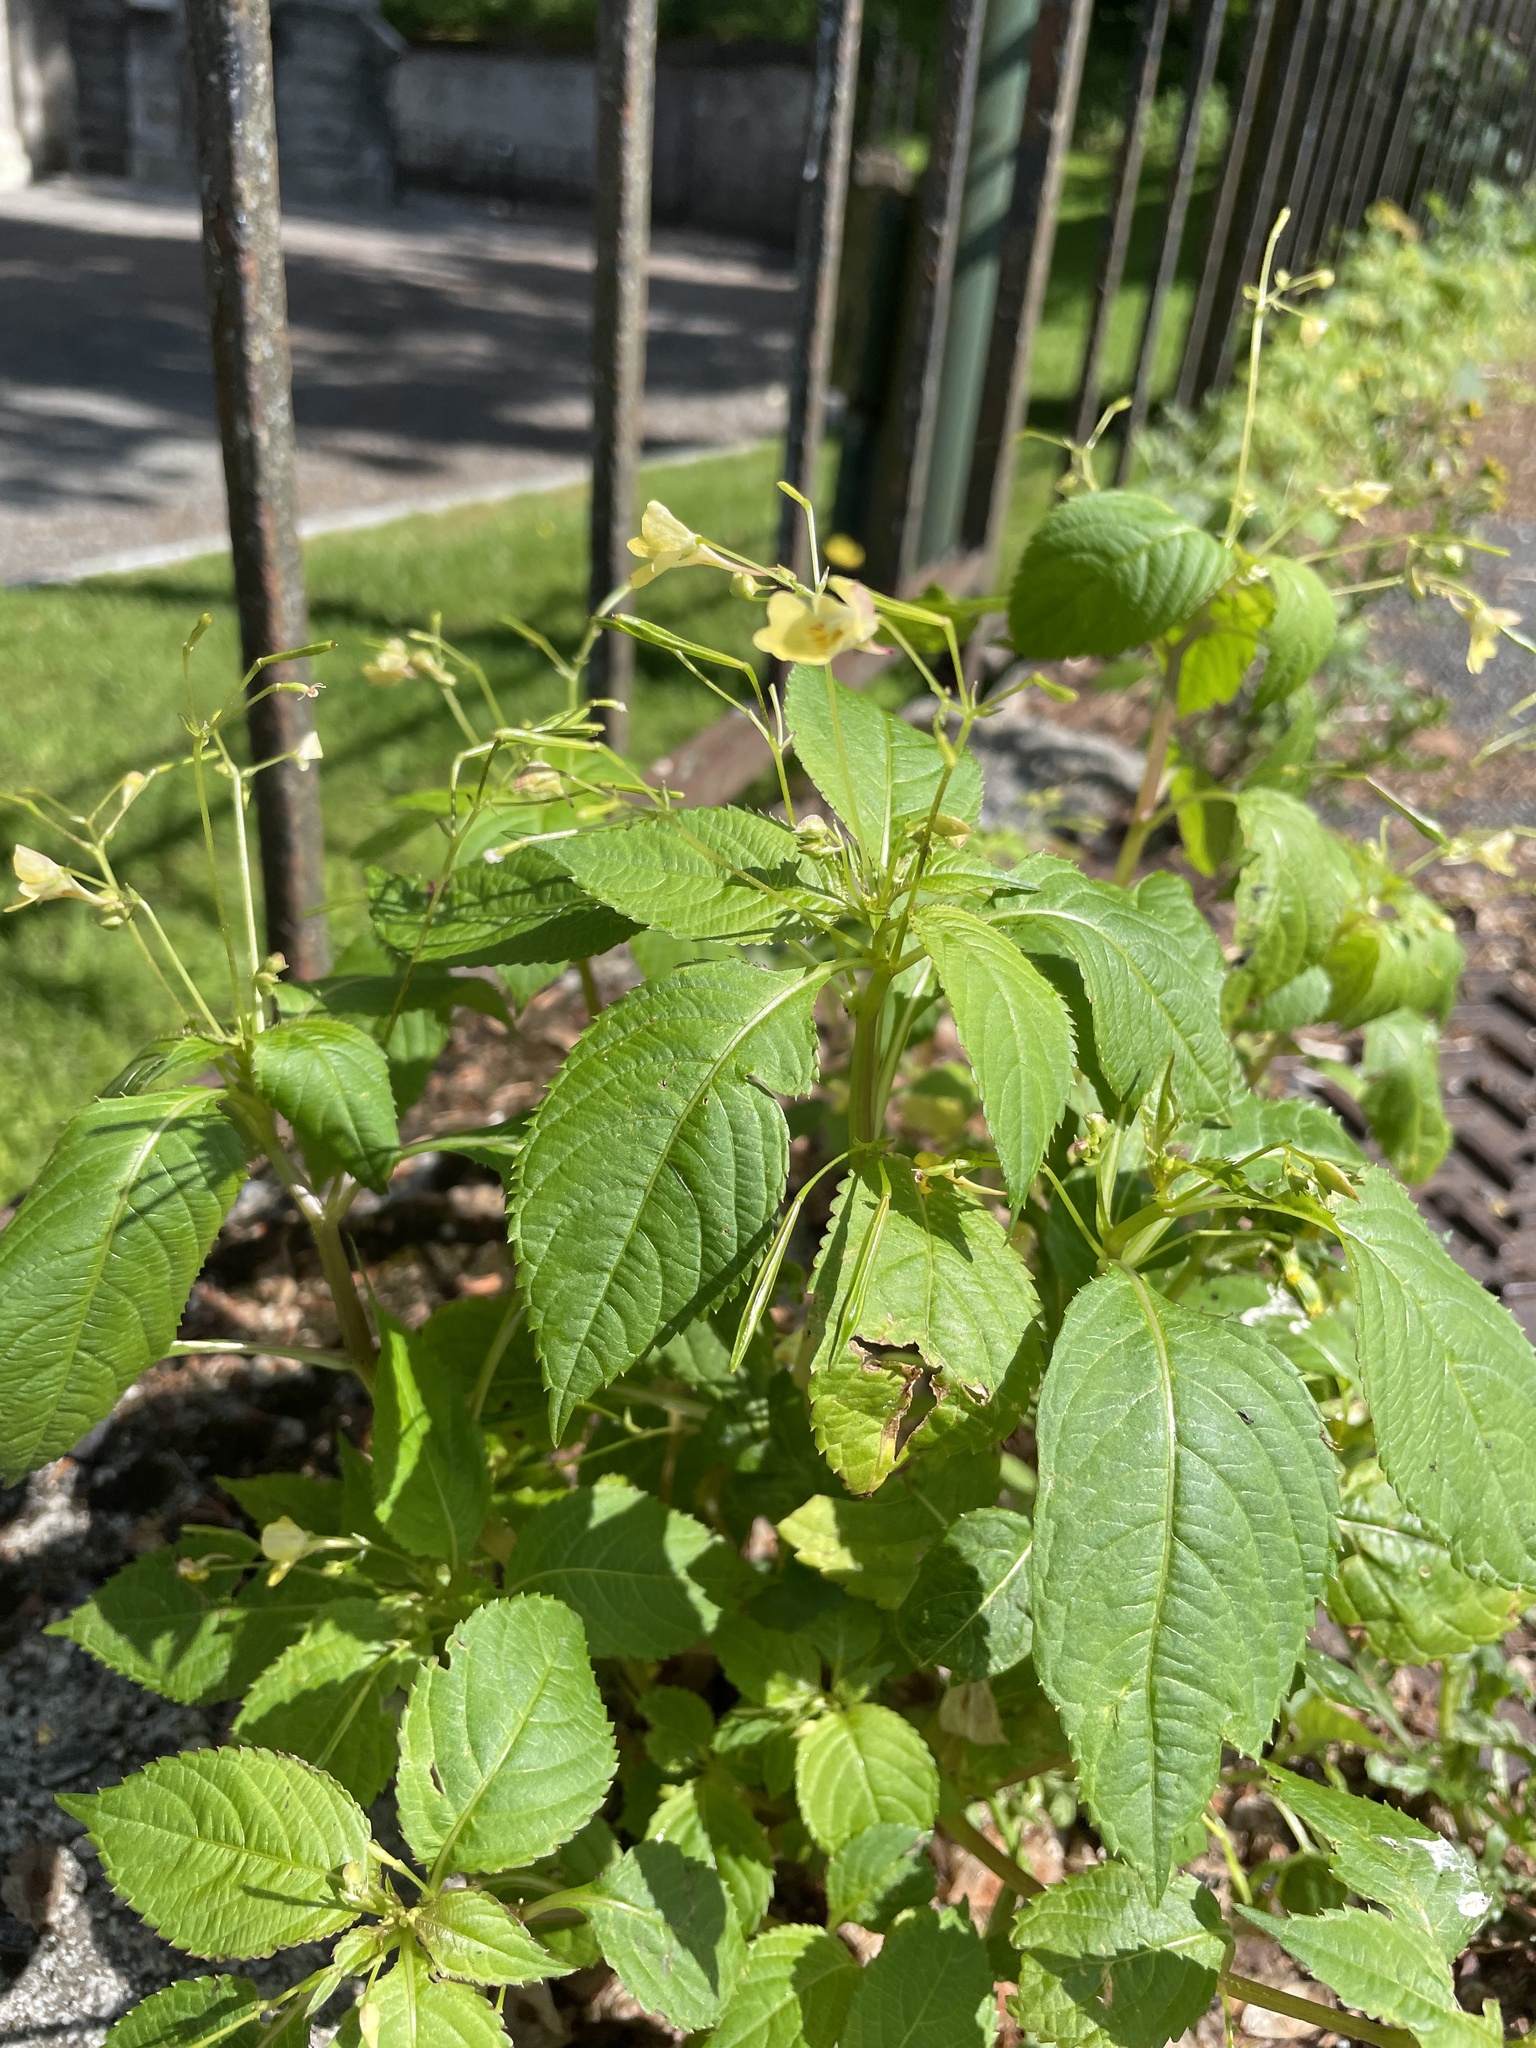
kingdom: Plantae
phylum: Tracheophyta
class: Magnoliopsida
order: Ericales
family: Balsaminaceae
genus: Impatiens
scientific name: Impatiens parviflora
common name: Small balsam
